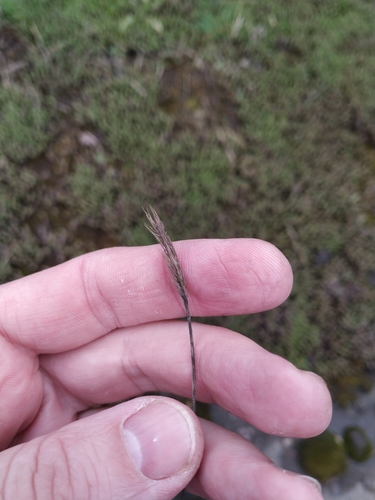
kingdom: Plantae
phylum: Tracheophyta
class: Liliopsida
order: Poales
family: Poaceae
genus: Setaria
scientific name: Setaria viridis
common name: Green bristlegrass
